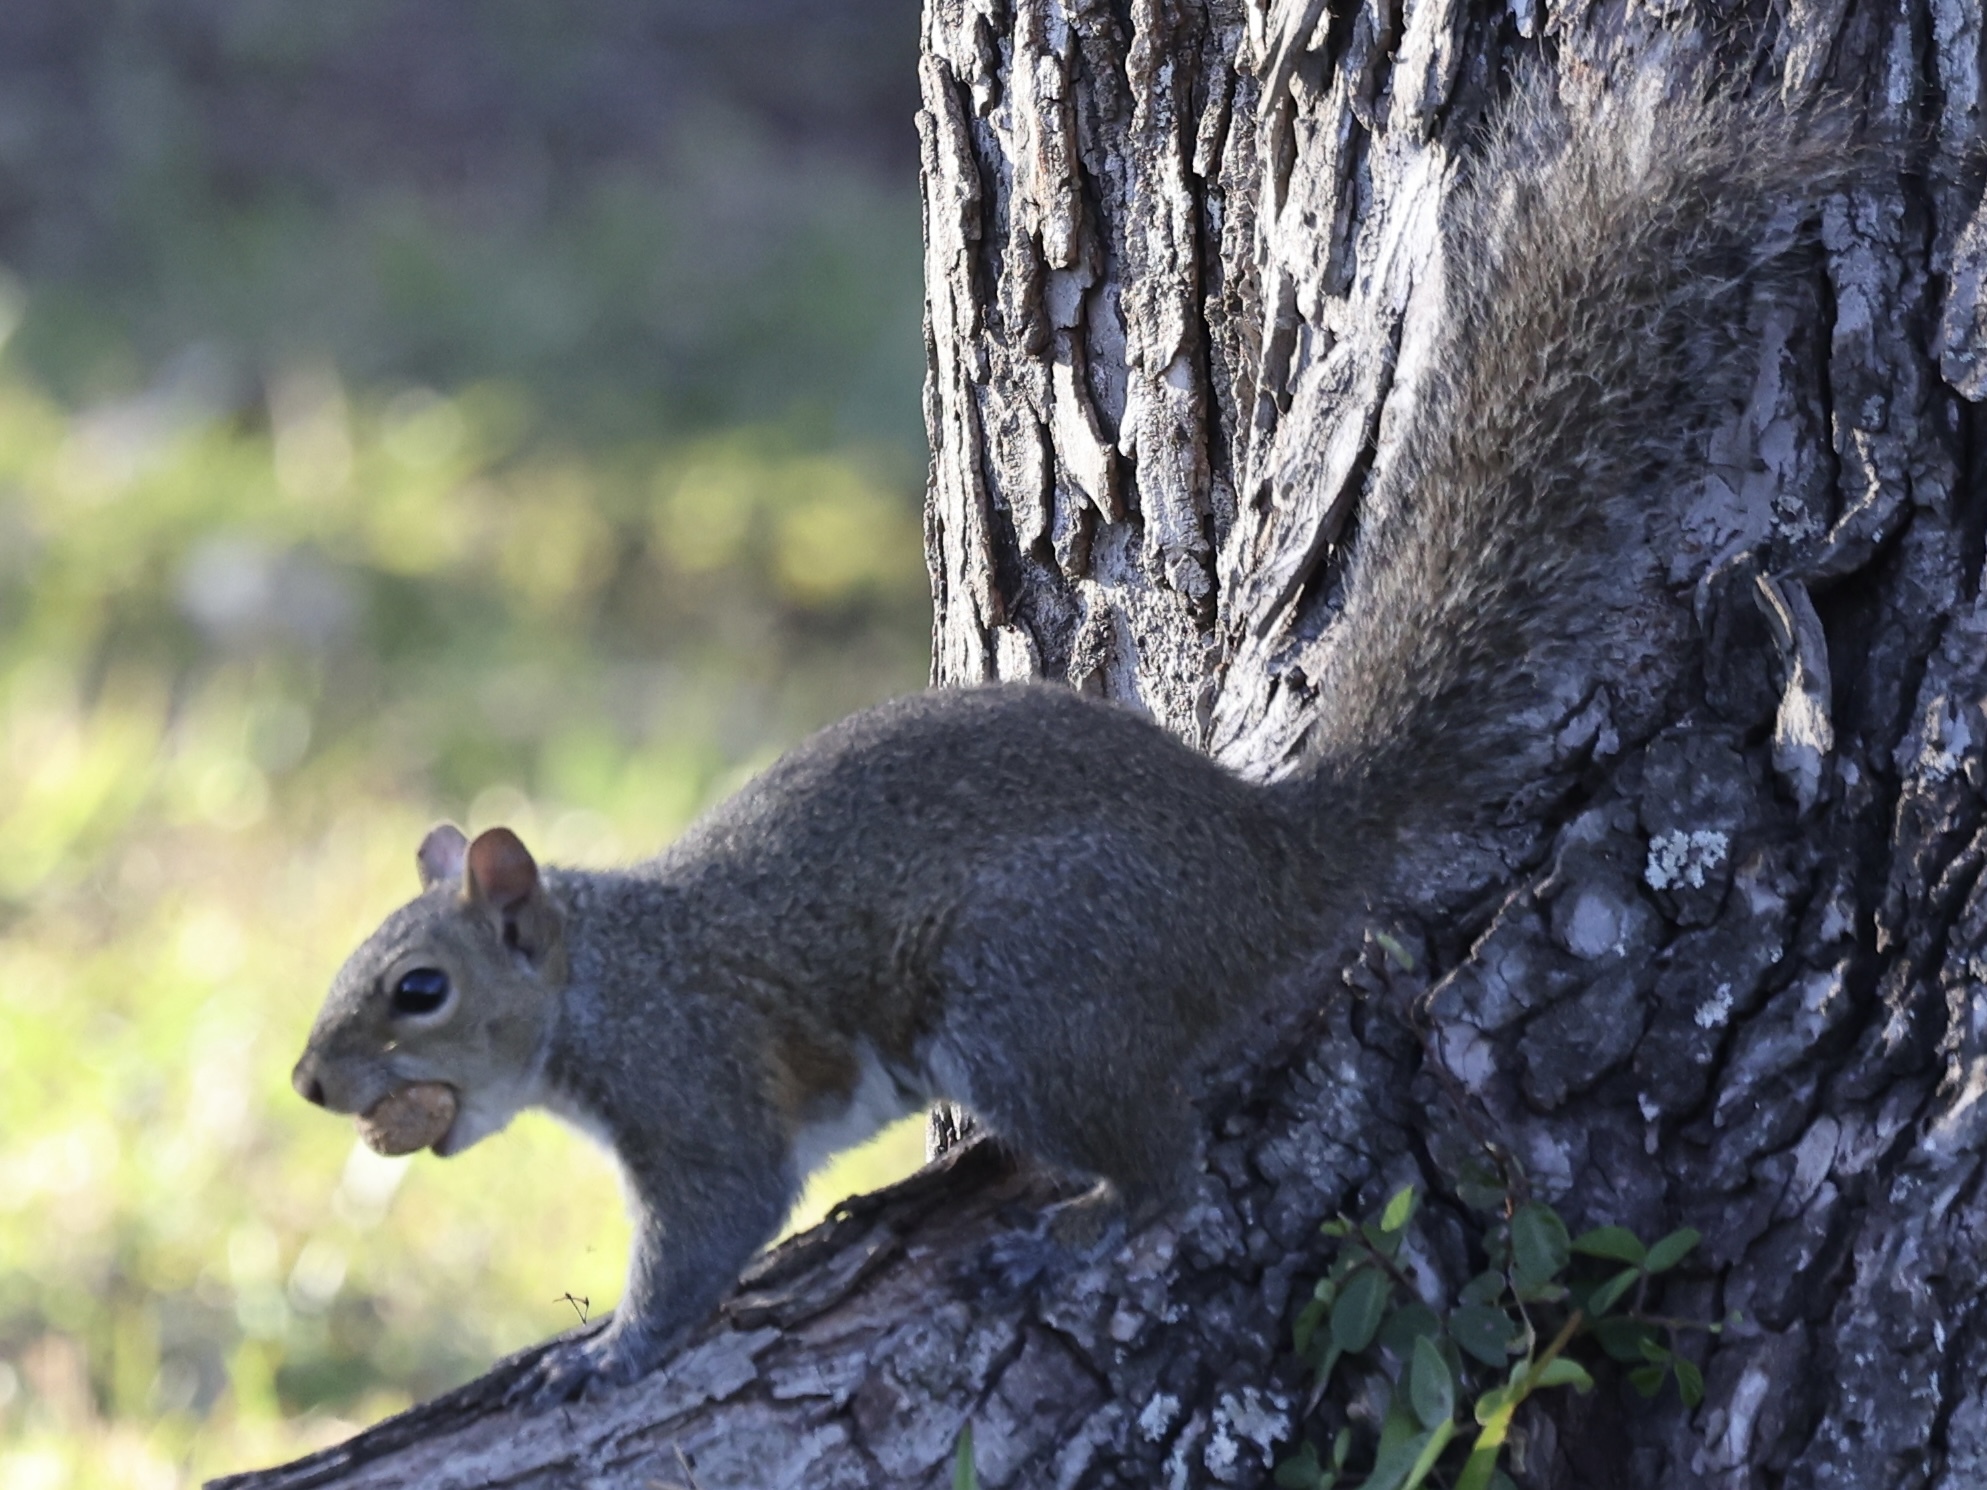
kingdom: Animalia
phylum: Chordata
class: Mammalia
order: Rodentia
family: Sciuridae
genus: Sciurus
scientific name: Sciurus carolinensis
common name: Eastern gray squirrel
